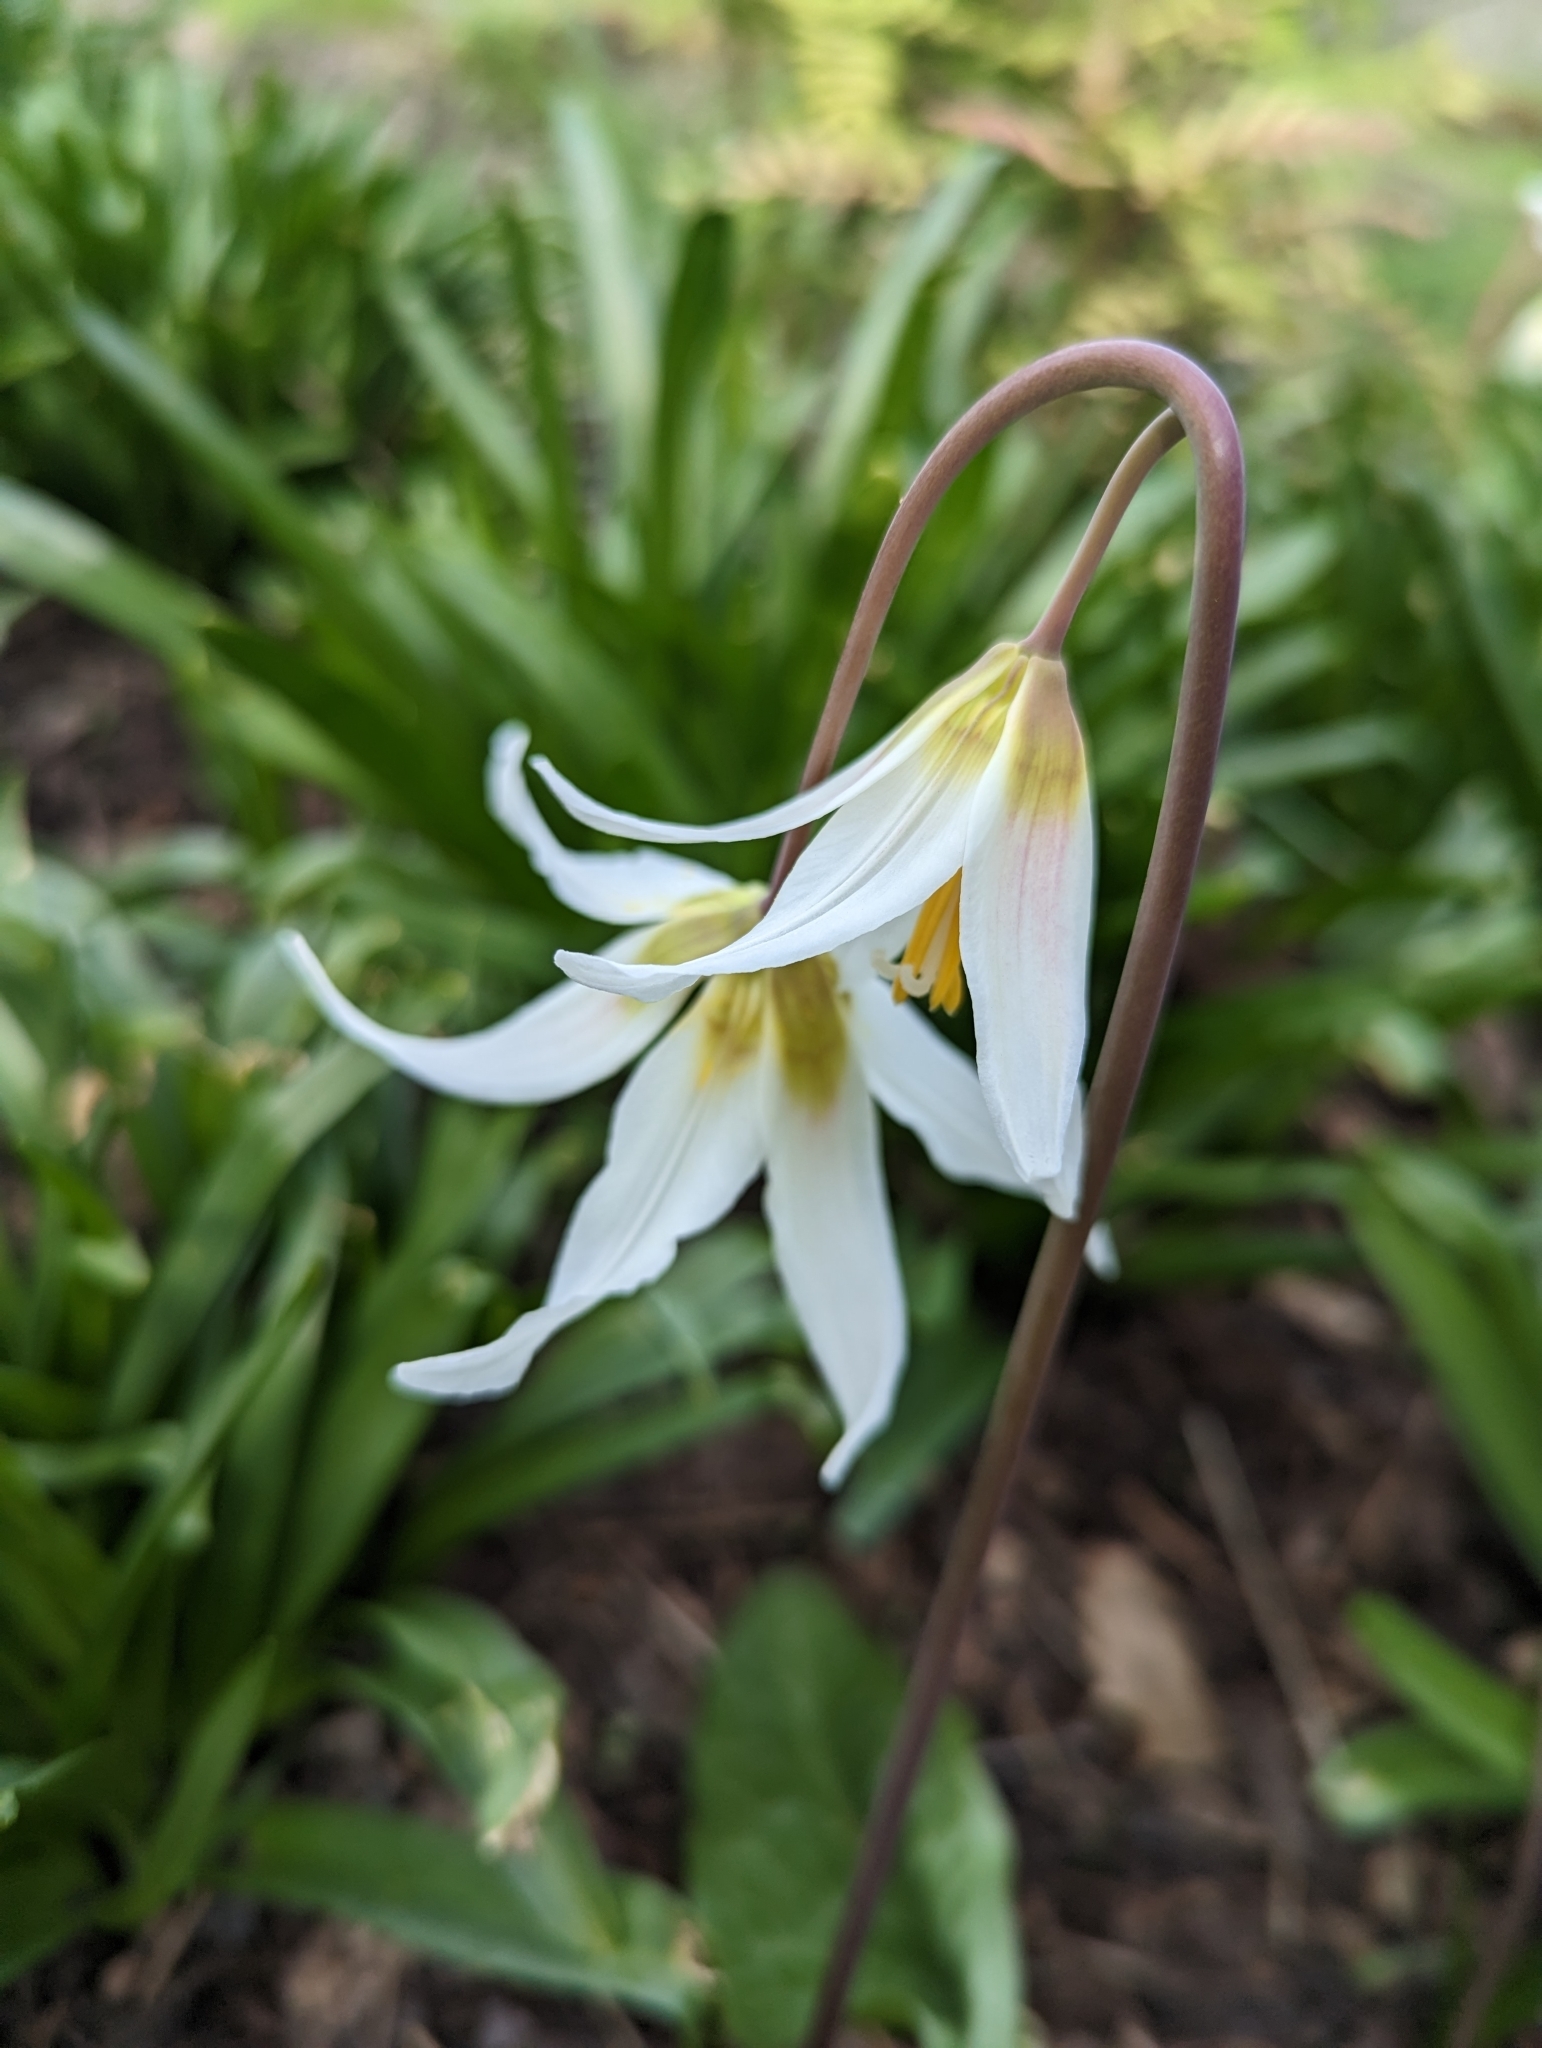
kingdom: Plantae
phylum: Tracheophyta
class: Liliopsida
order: Liliales
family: Liliaceae
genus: Erythronium
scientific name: Erythronium oregonum
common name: Giant adder's-tongue
